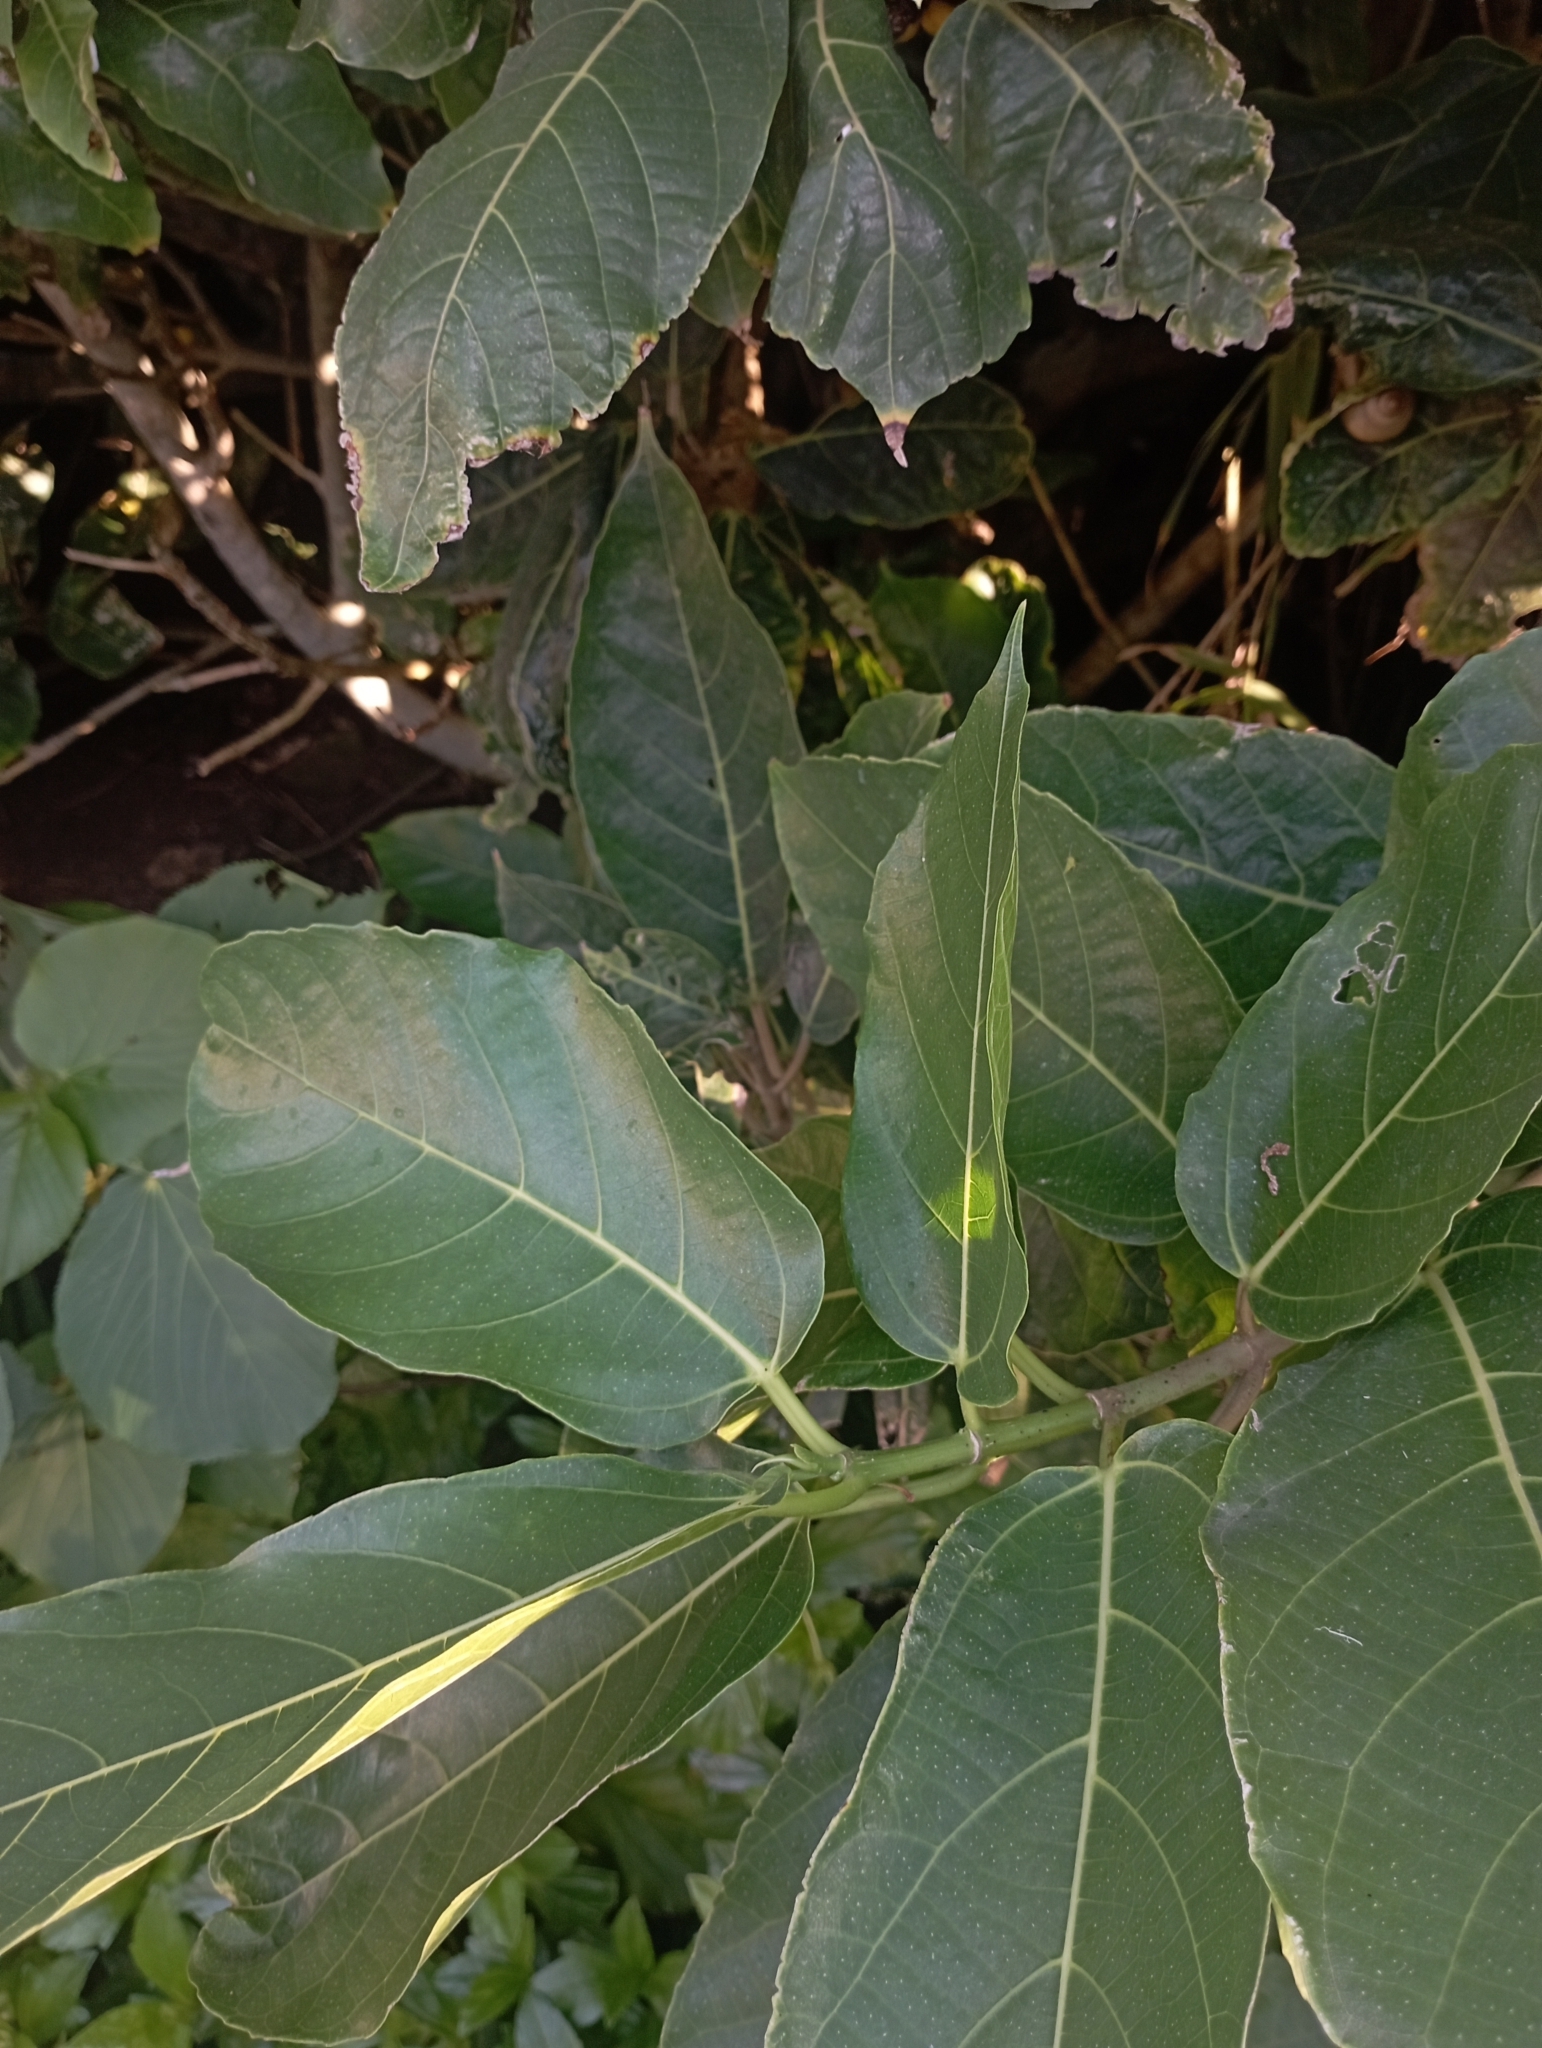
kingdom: Plantae
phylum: Tracheophyta
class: Magnoliopsida
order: Rosales
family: Moraceae
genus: Ficus
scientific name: Ficus cumingii
